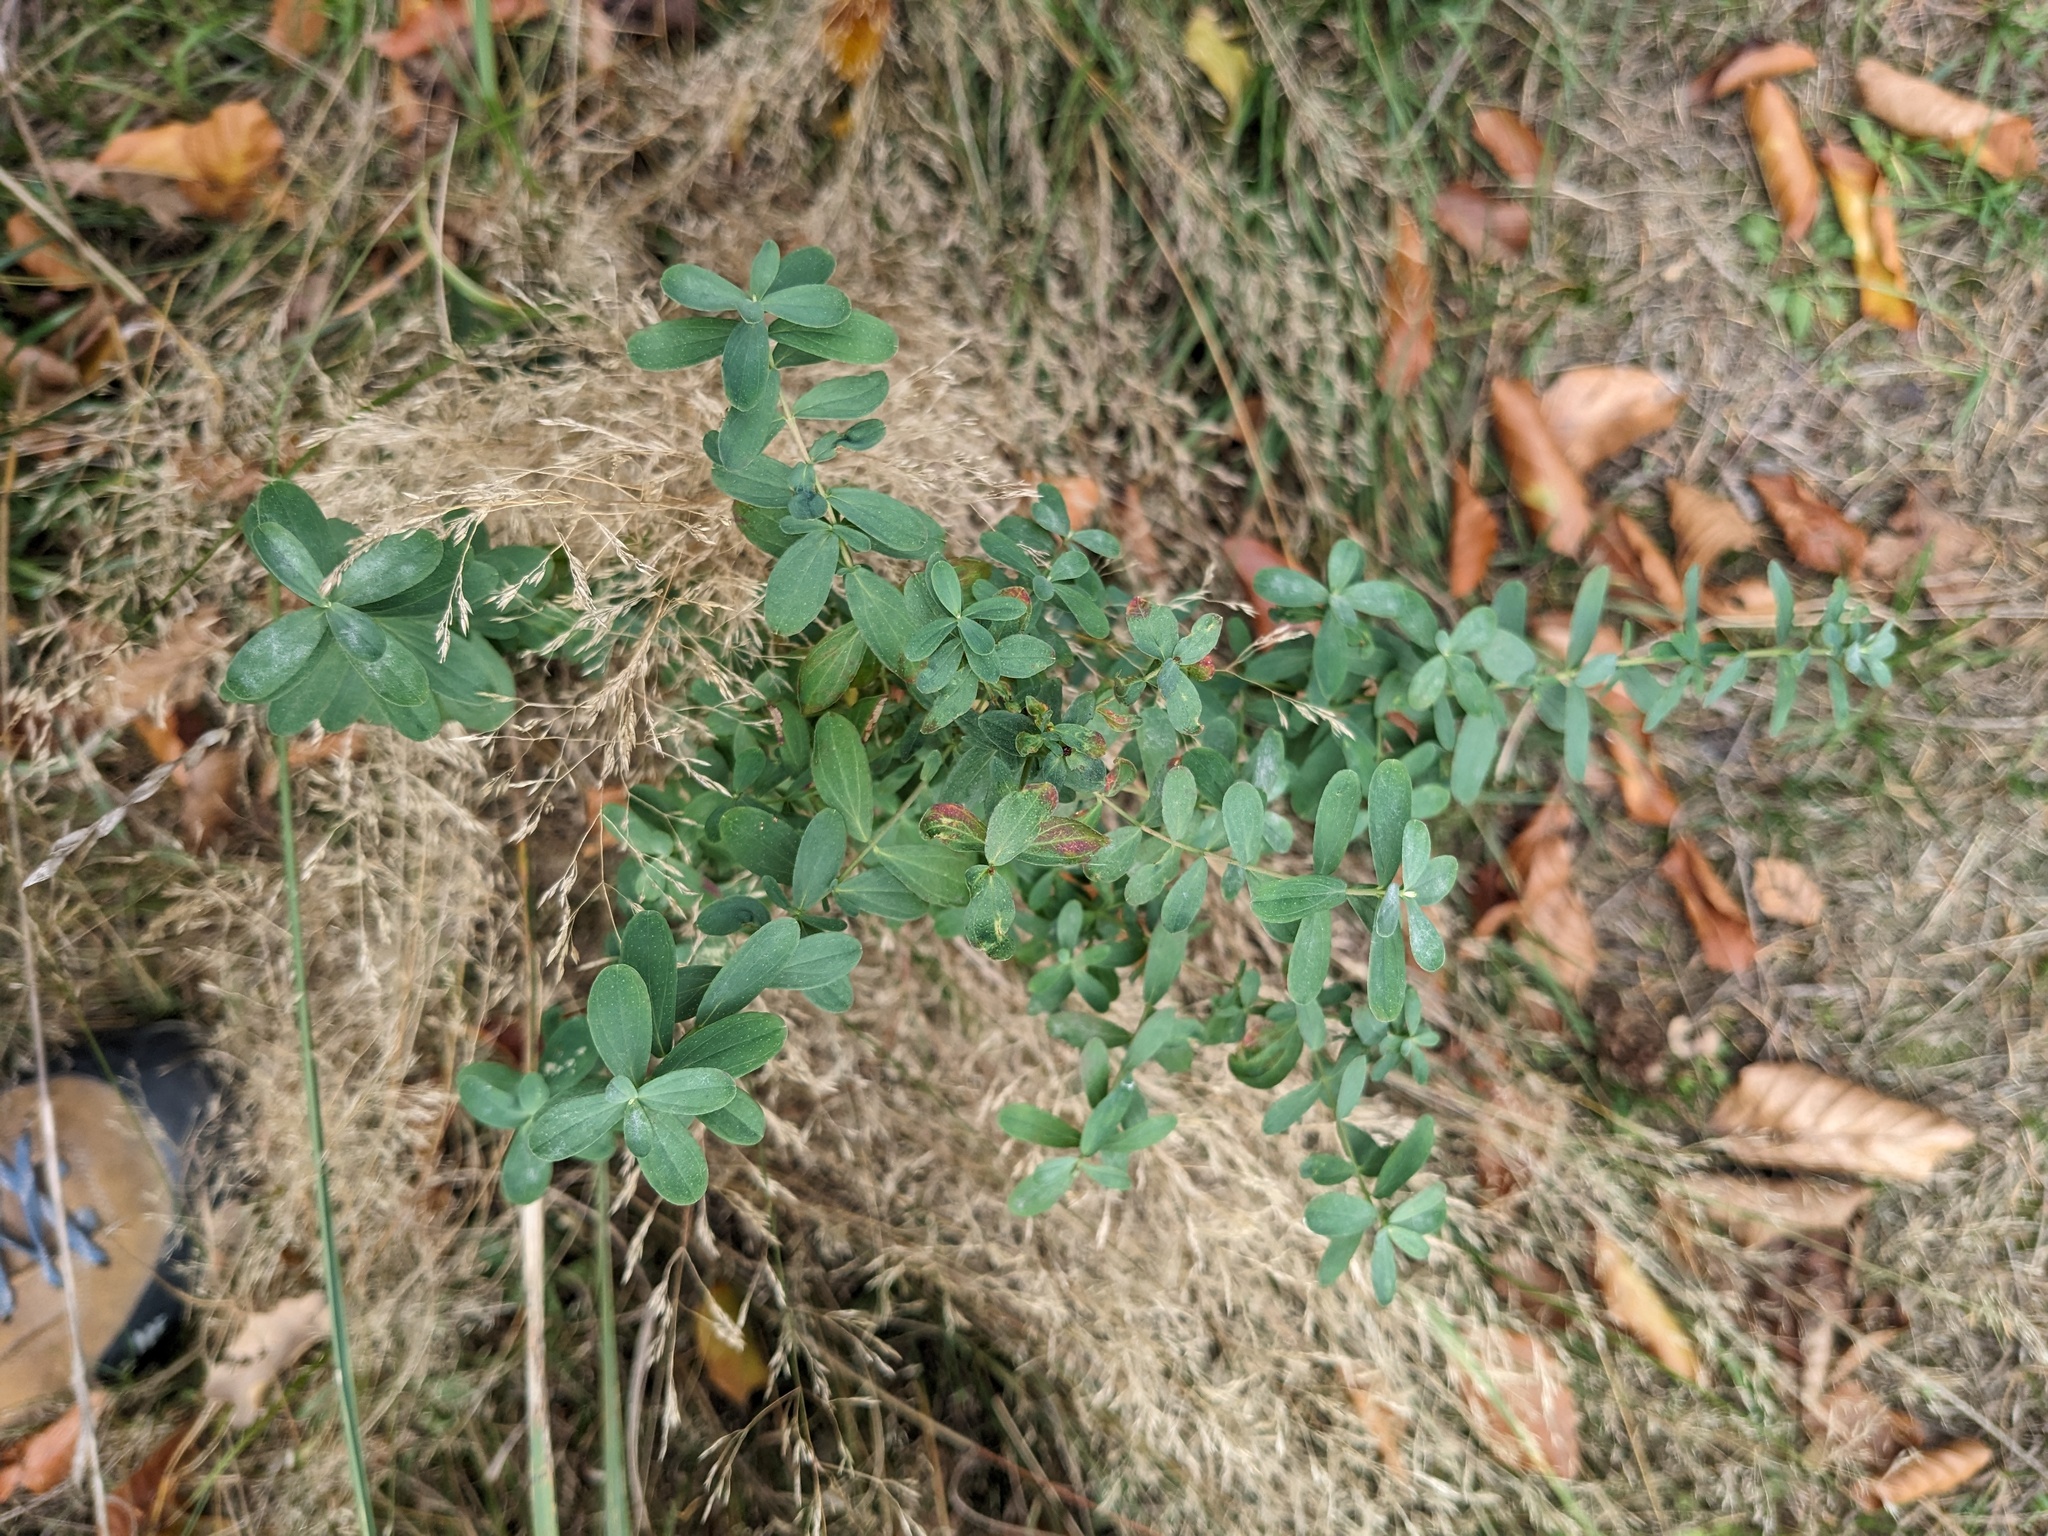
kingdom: Plantae
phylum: Tracheophyta
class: Magnoliopsida
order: Malpighiales
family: Hypericaceae
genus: Hypericum
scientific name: Hypericum perforatum
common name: Common st. johnswort
